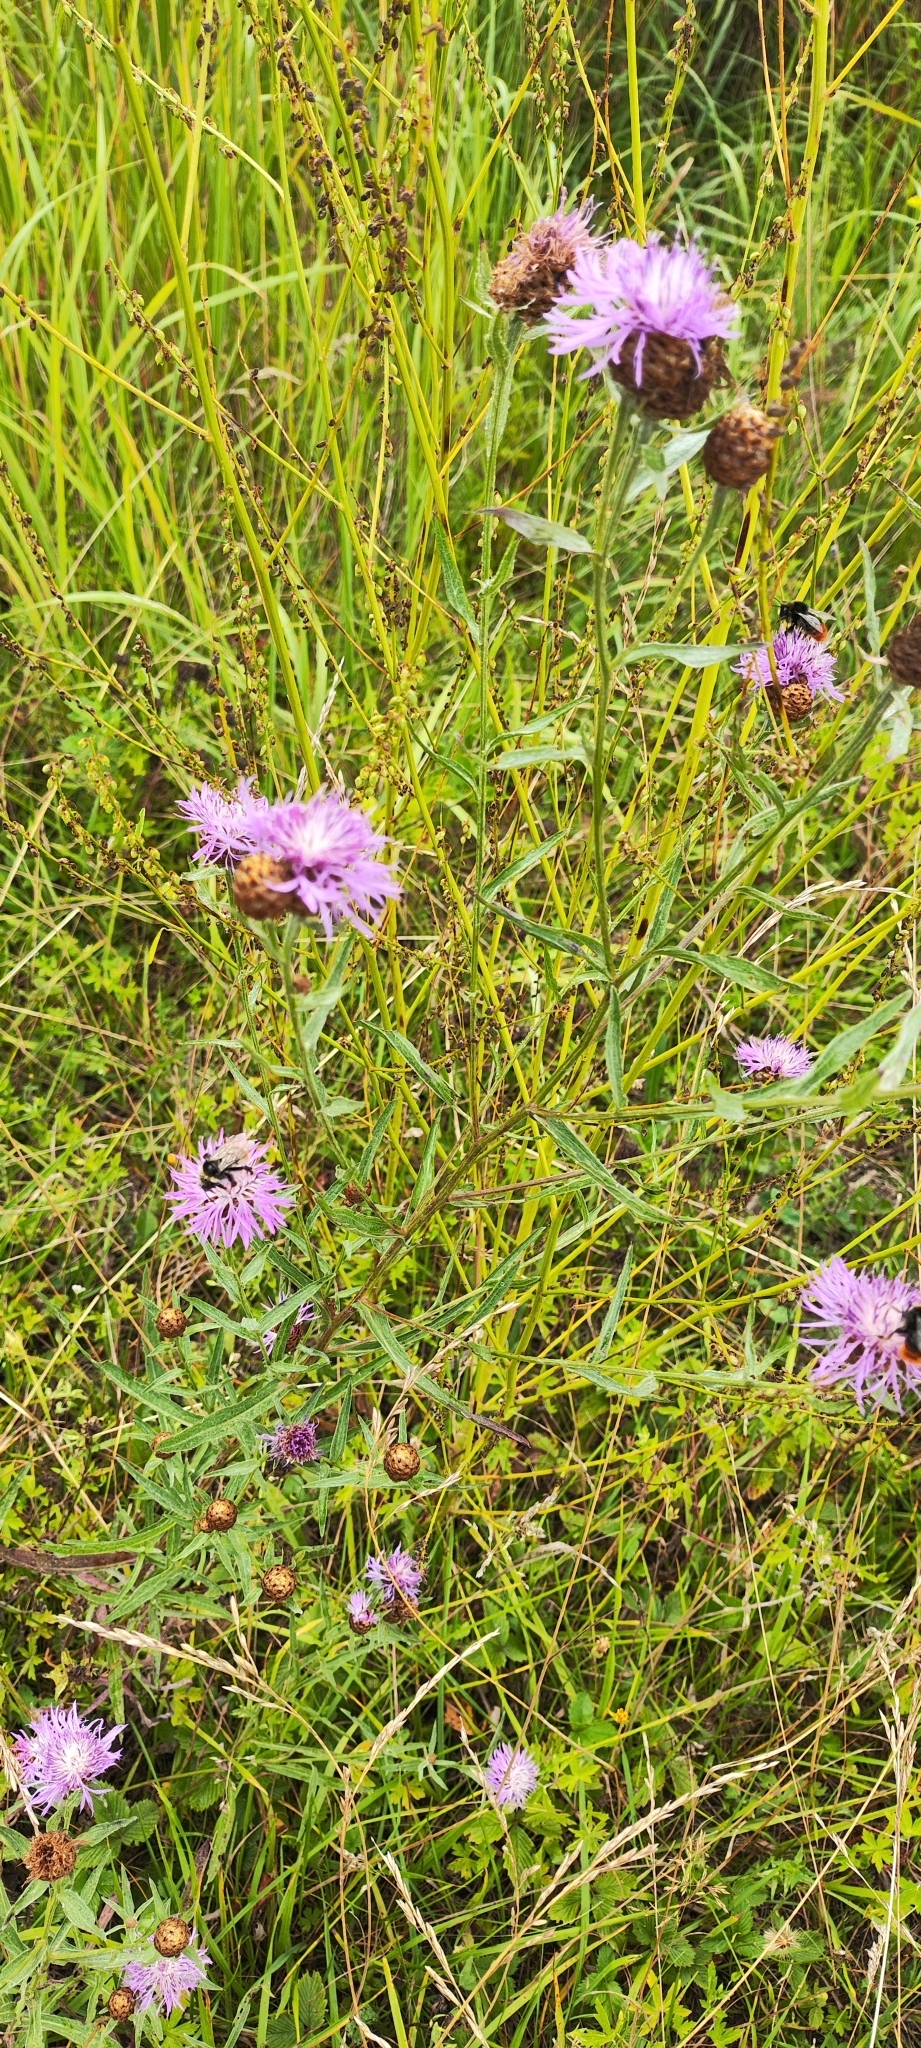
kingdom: Plantae
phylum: Tracheophyta
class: Magnoliopsida
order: Asterales
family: Asteraceae
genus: Centaurea
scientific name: Centaurea jacea
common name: Brown knapweed
